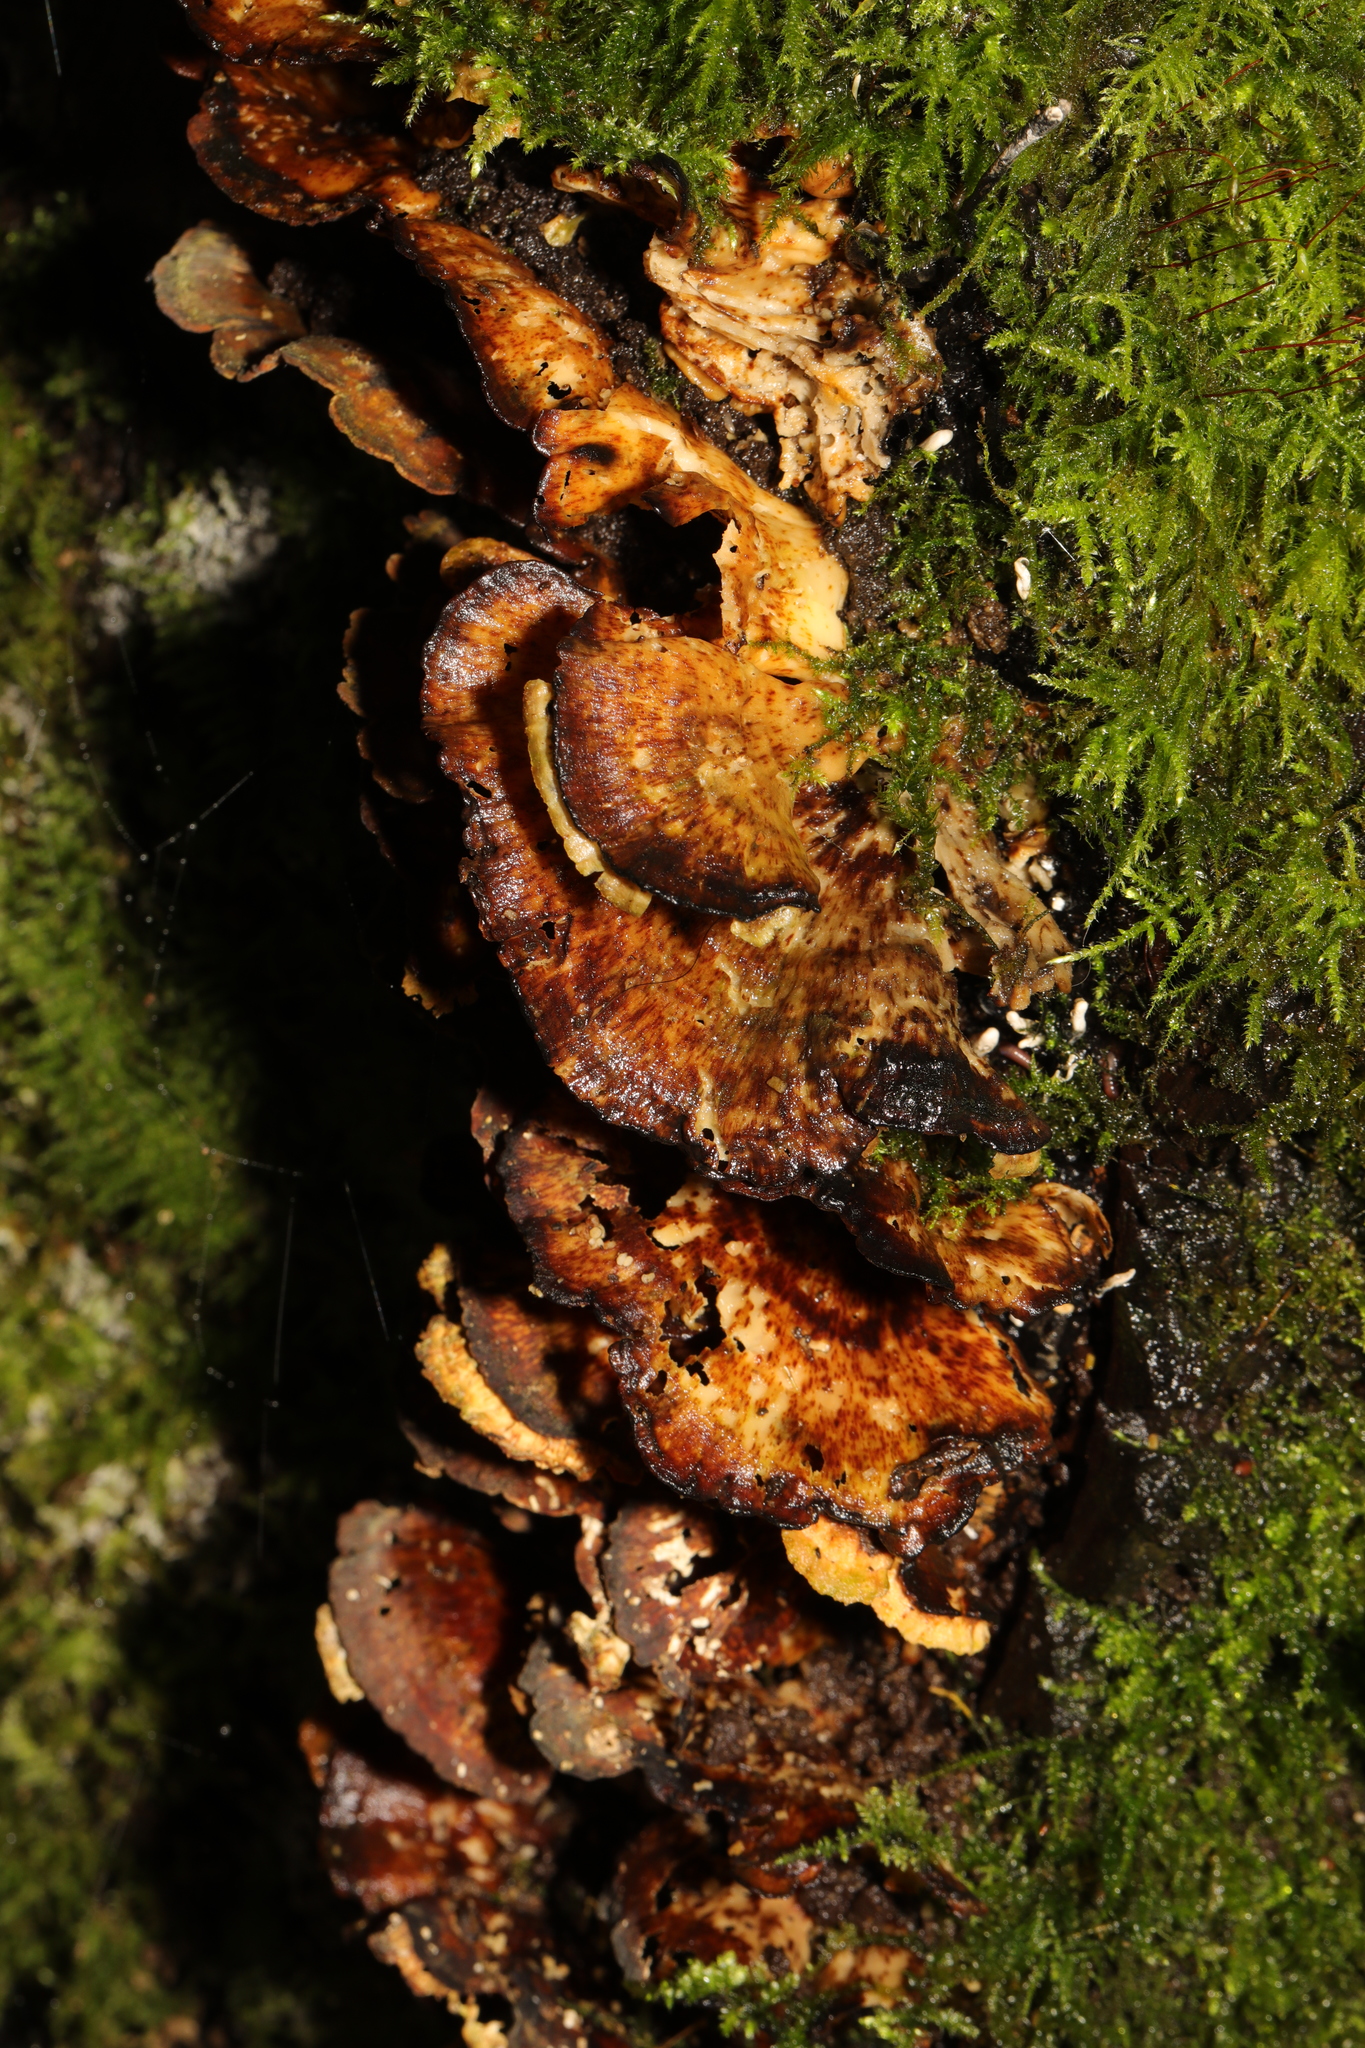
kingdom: Fungi
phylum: Basidiomycota
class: Agaricomycetes
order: Polyporales
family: Polyporaceae
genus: Trametes
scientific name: Trametes versicolor
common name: Turkeytail
